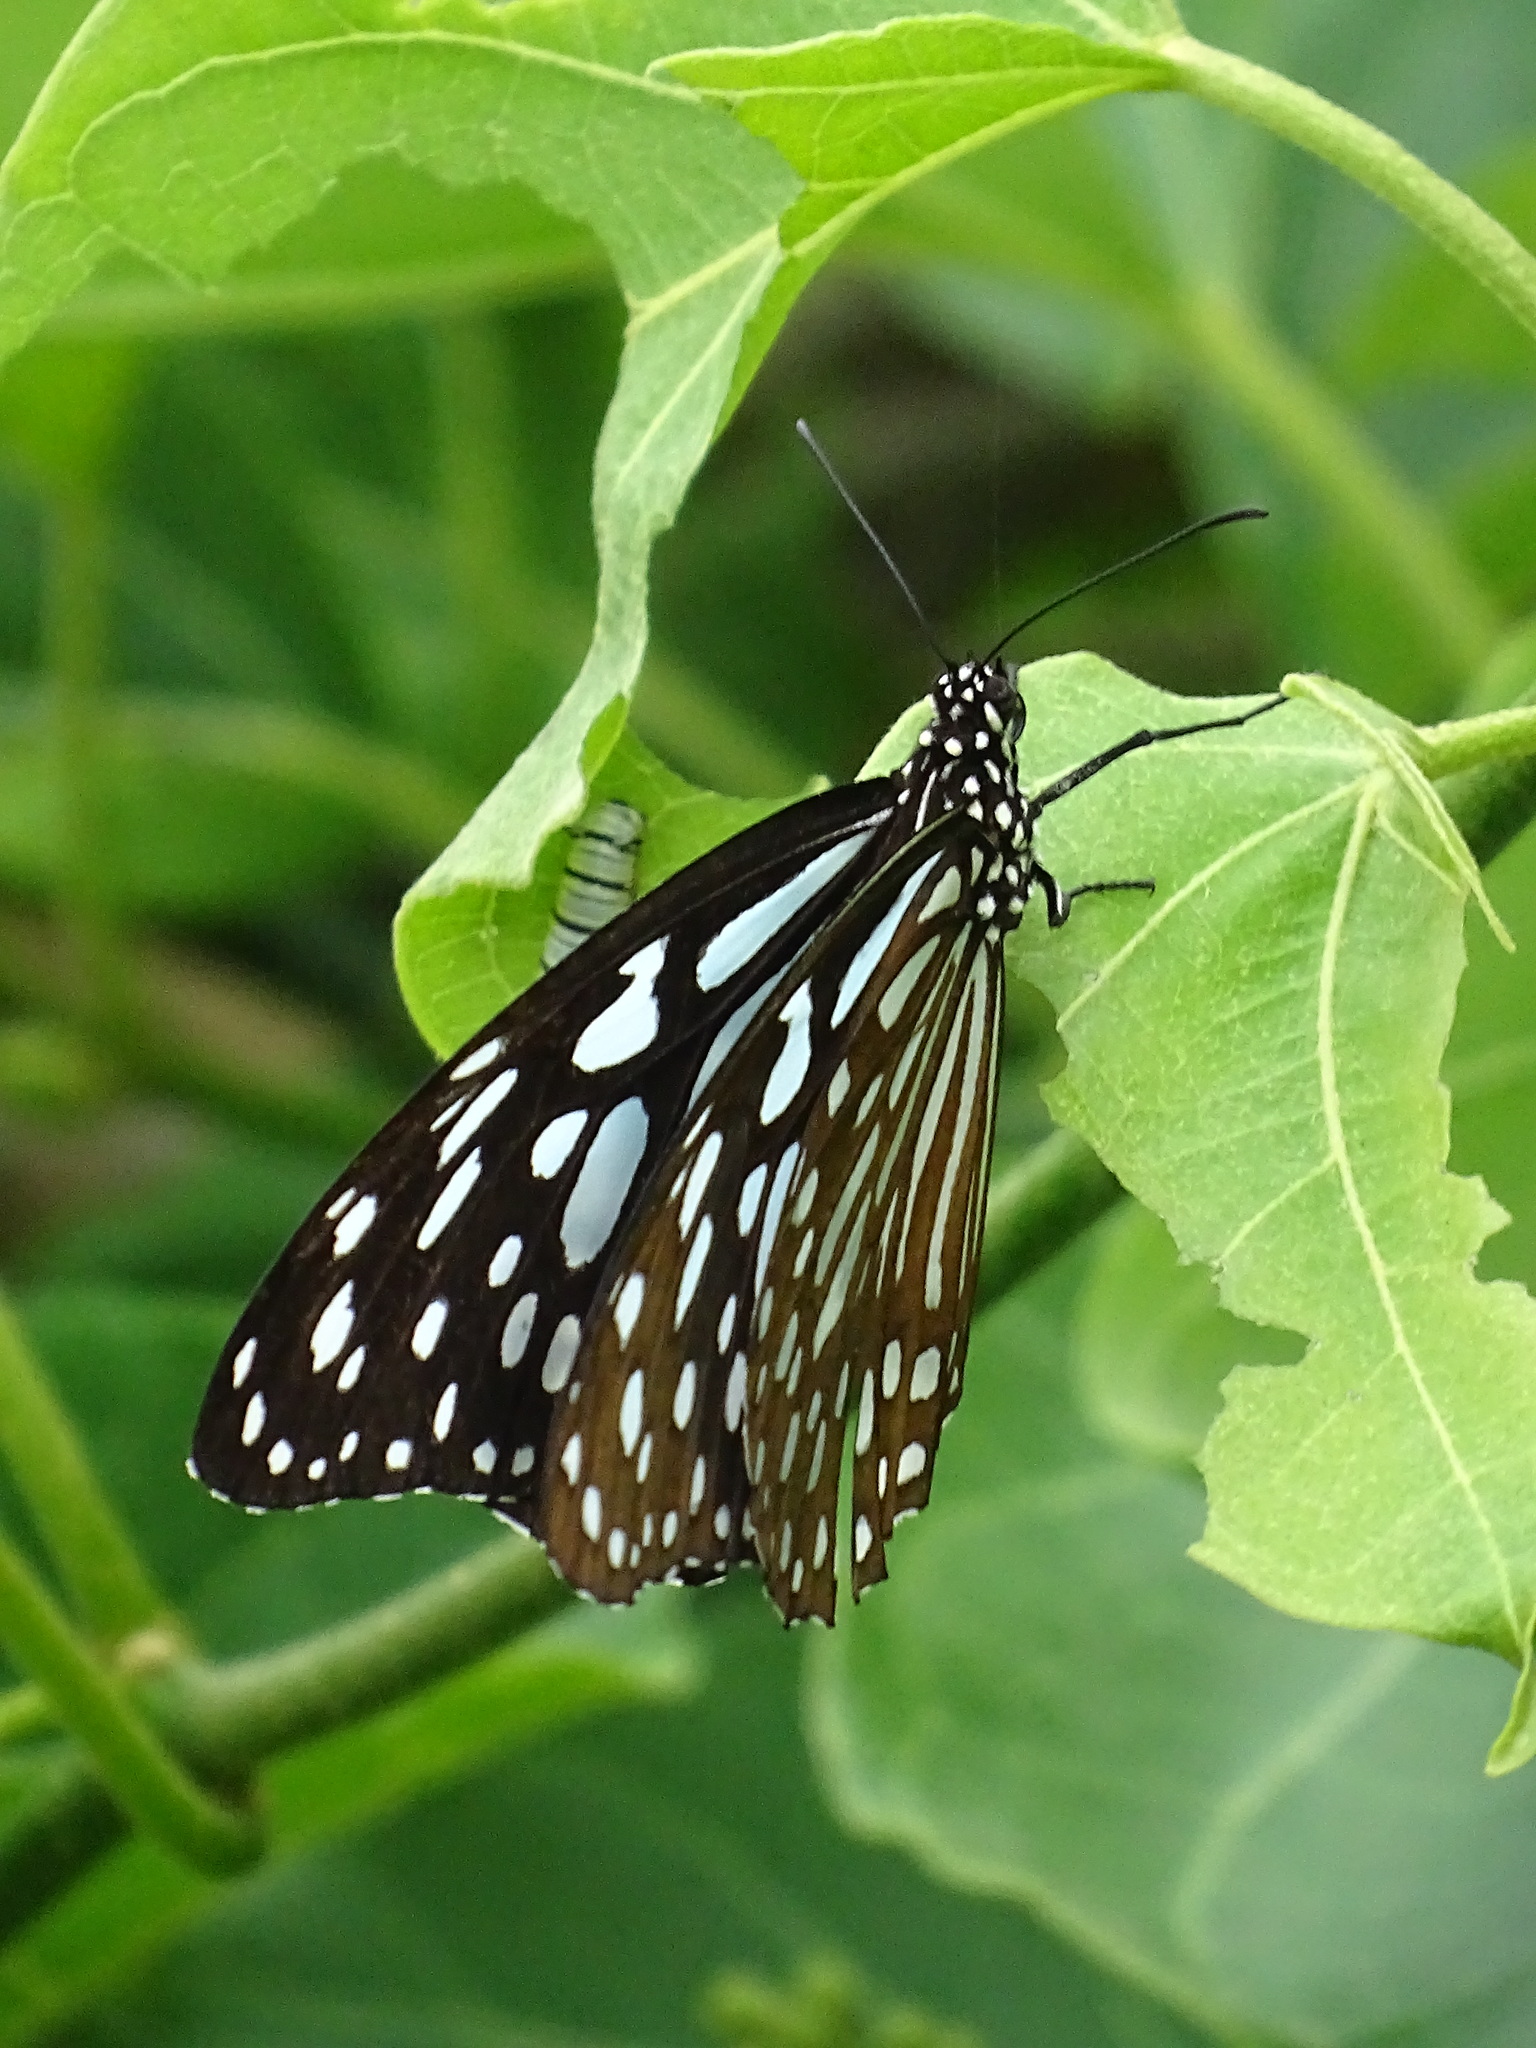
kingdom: Animalia
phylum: Arthropoda
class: Insecta
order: Lepidoptera
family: Nymphalidae
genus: Tirumala
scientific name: Tirumala limniace
